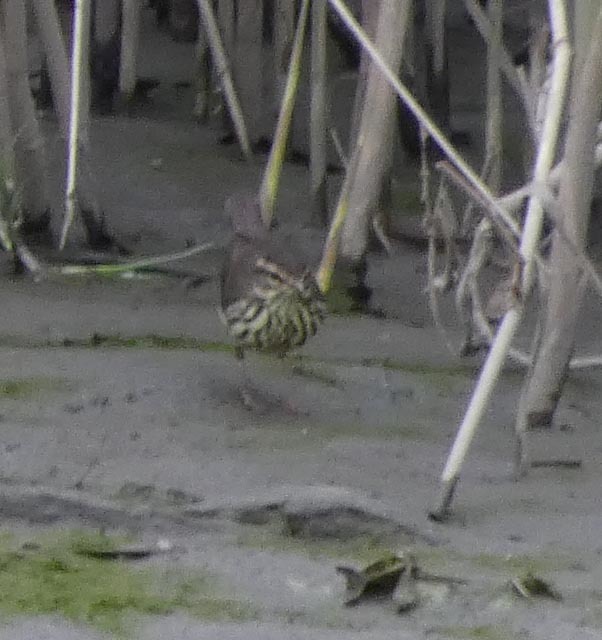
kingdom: Animalia
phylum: Chordata
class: Aves
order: Passeriformes
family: Parulidae
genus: Parkesia
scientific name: Parkesia noveboracensis
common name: Northern waterthrush
